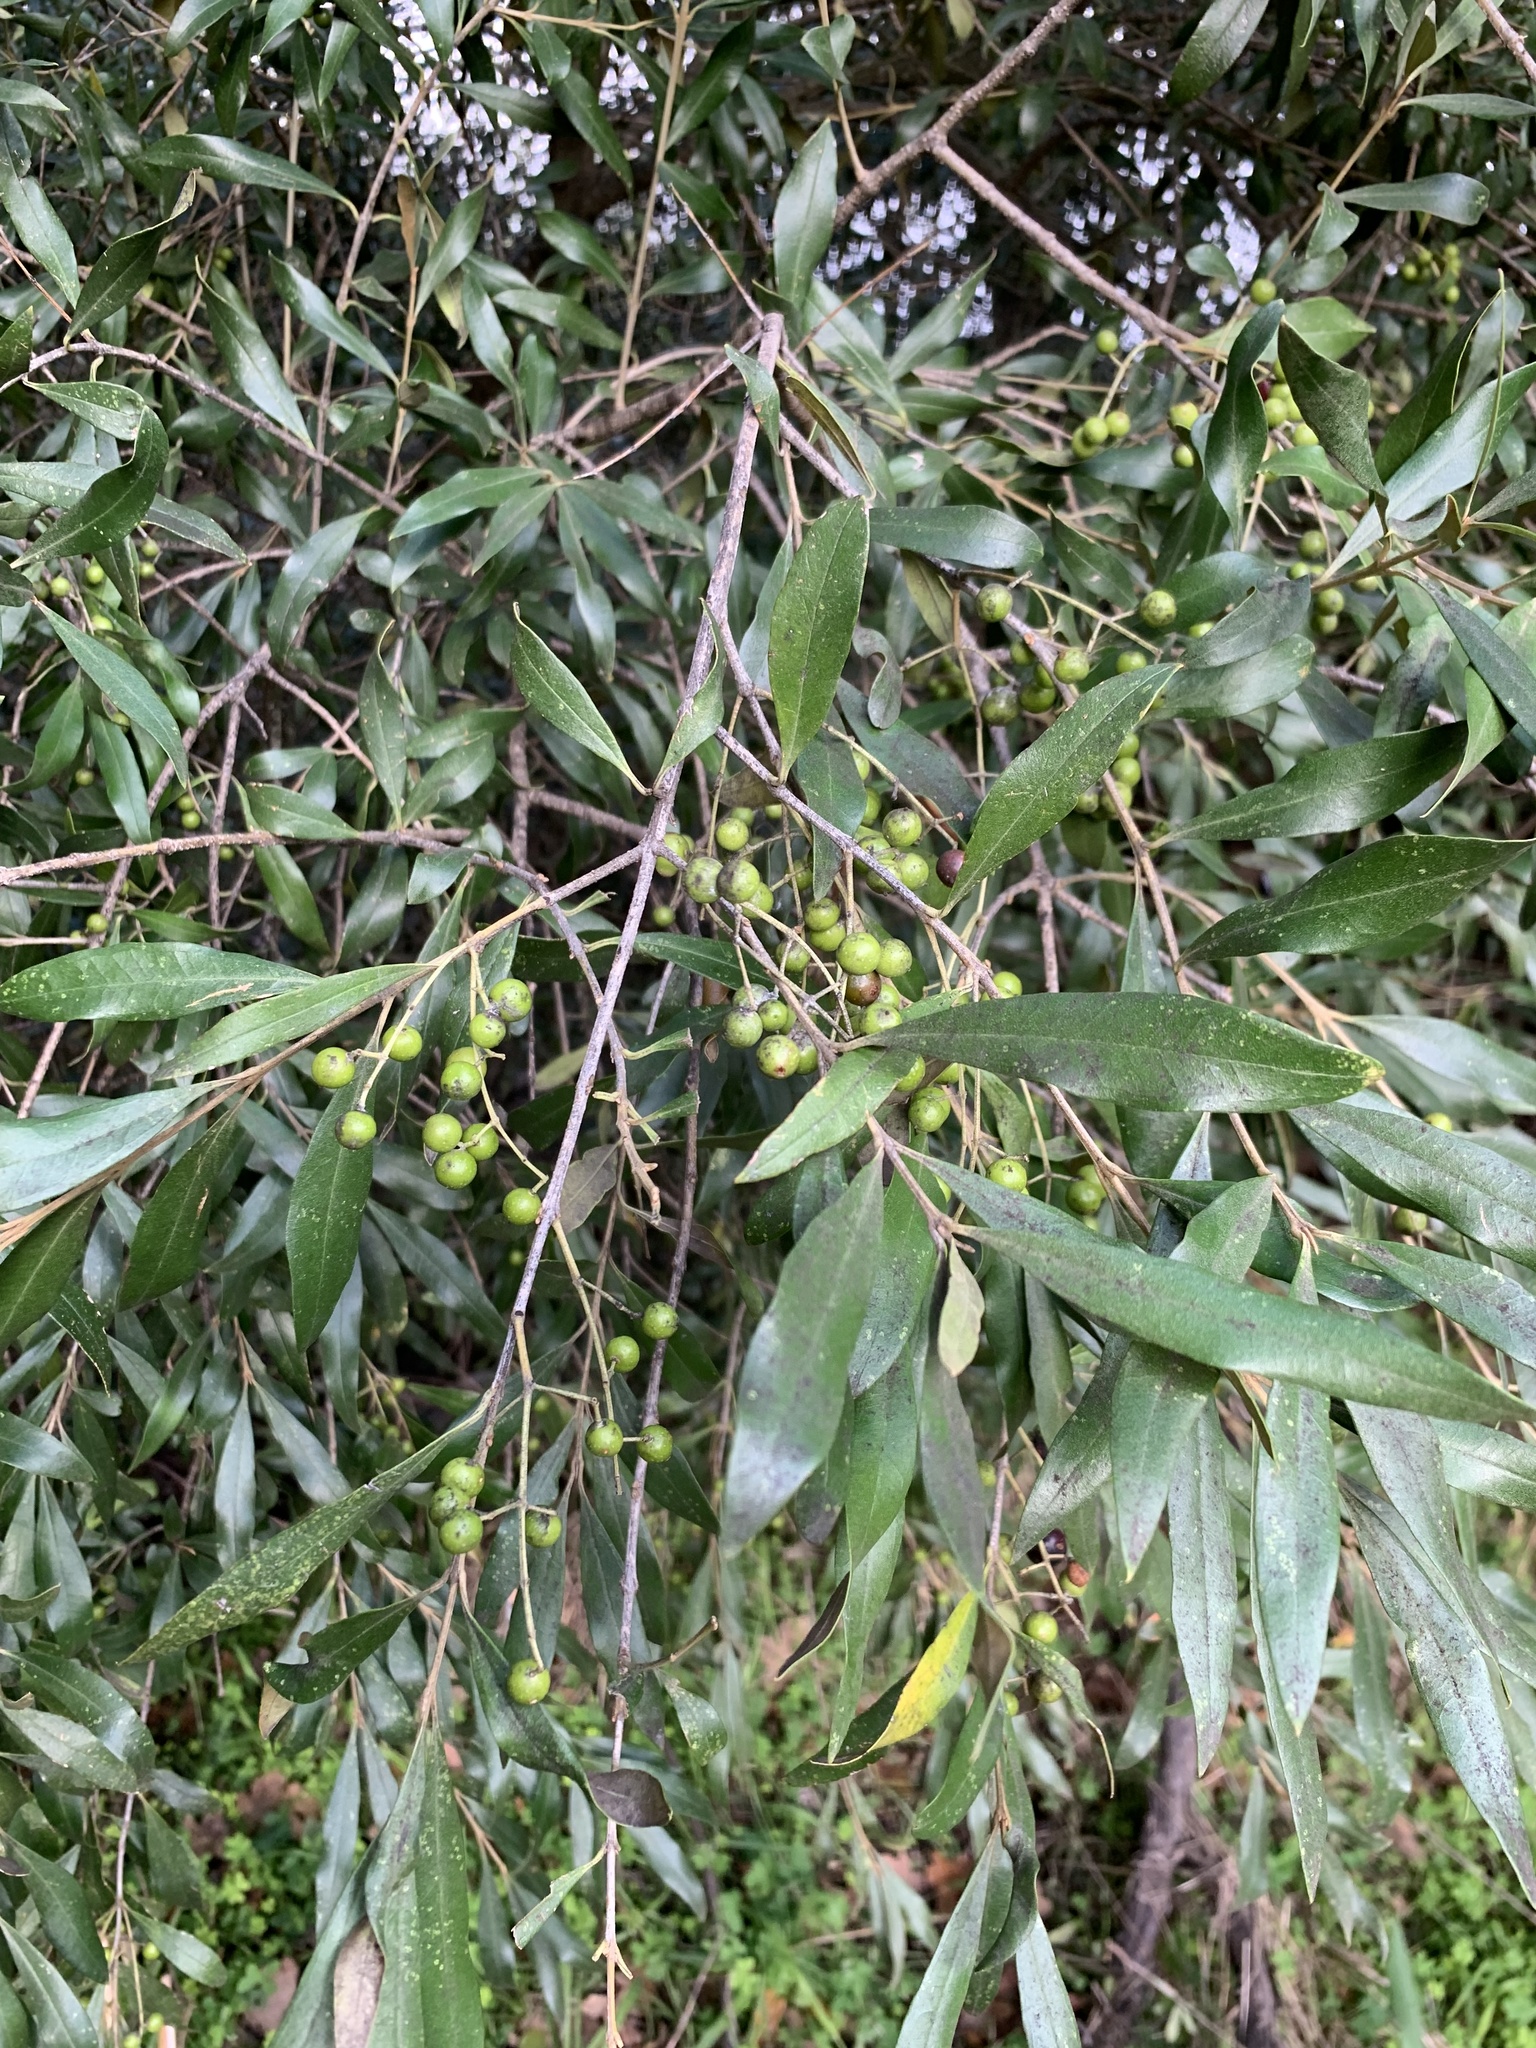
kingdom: Plantae
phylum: Tracheophyta
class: Magnoliopsida
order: Lamiales
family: Oleaceae
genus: Olea
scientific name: Olea europaea
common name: Olive
